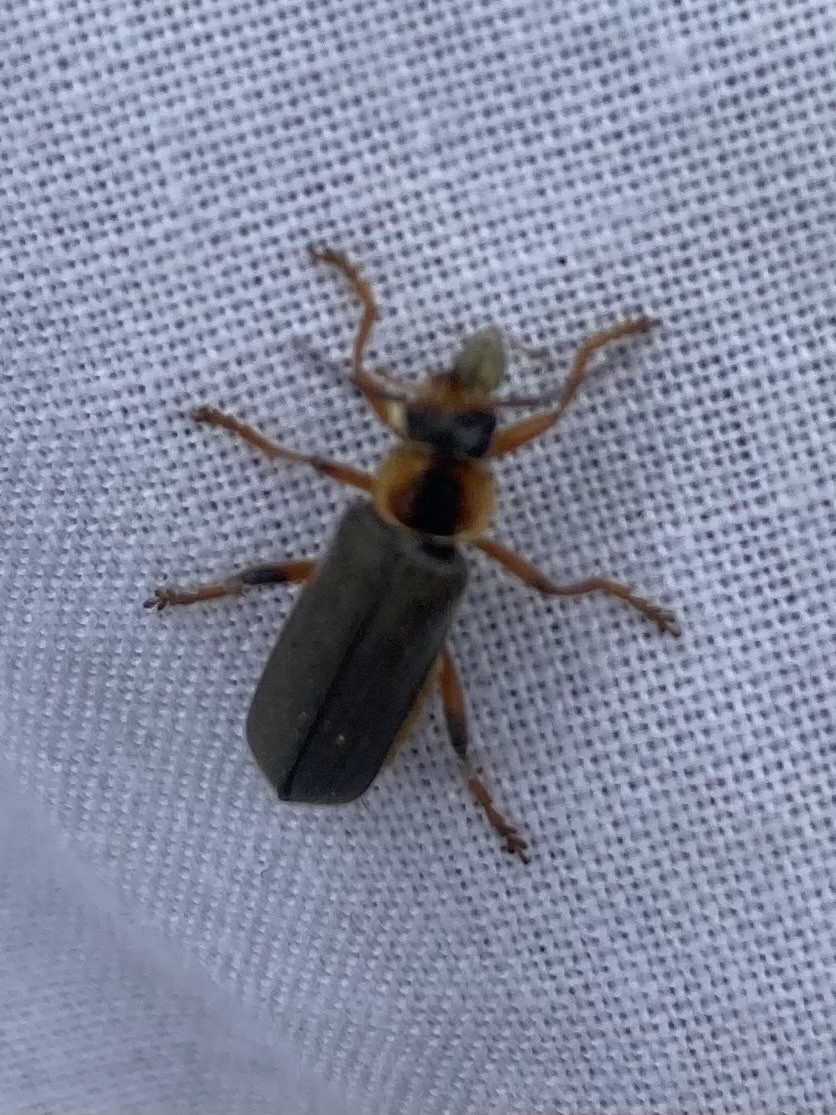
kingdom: Animalia
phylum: Arthropoda
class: Insecta
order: Coleoptera
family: Cantharidae
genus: Cantharis
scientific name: Cantharis nigricans
